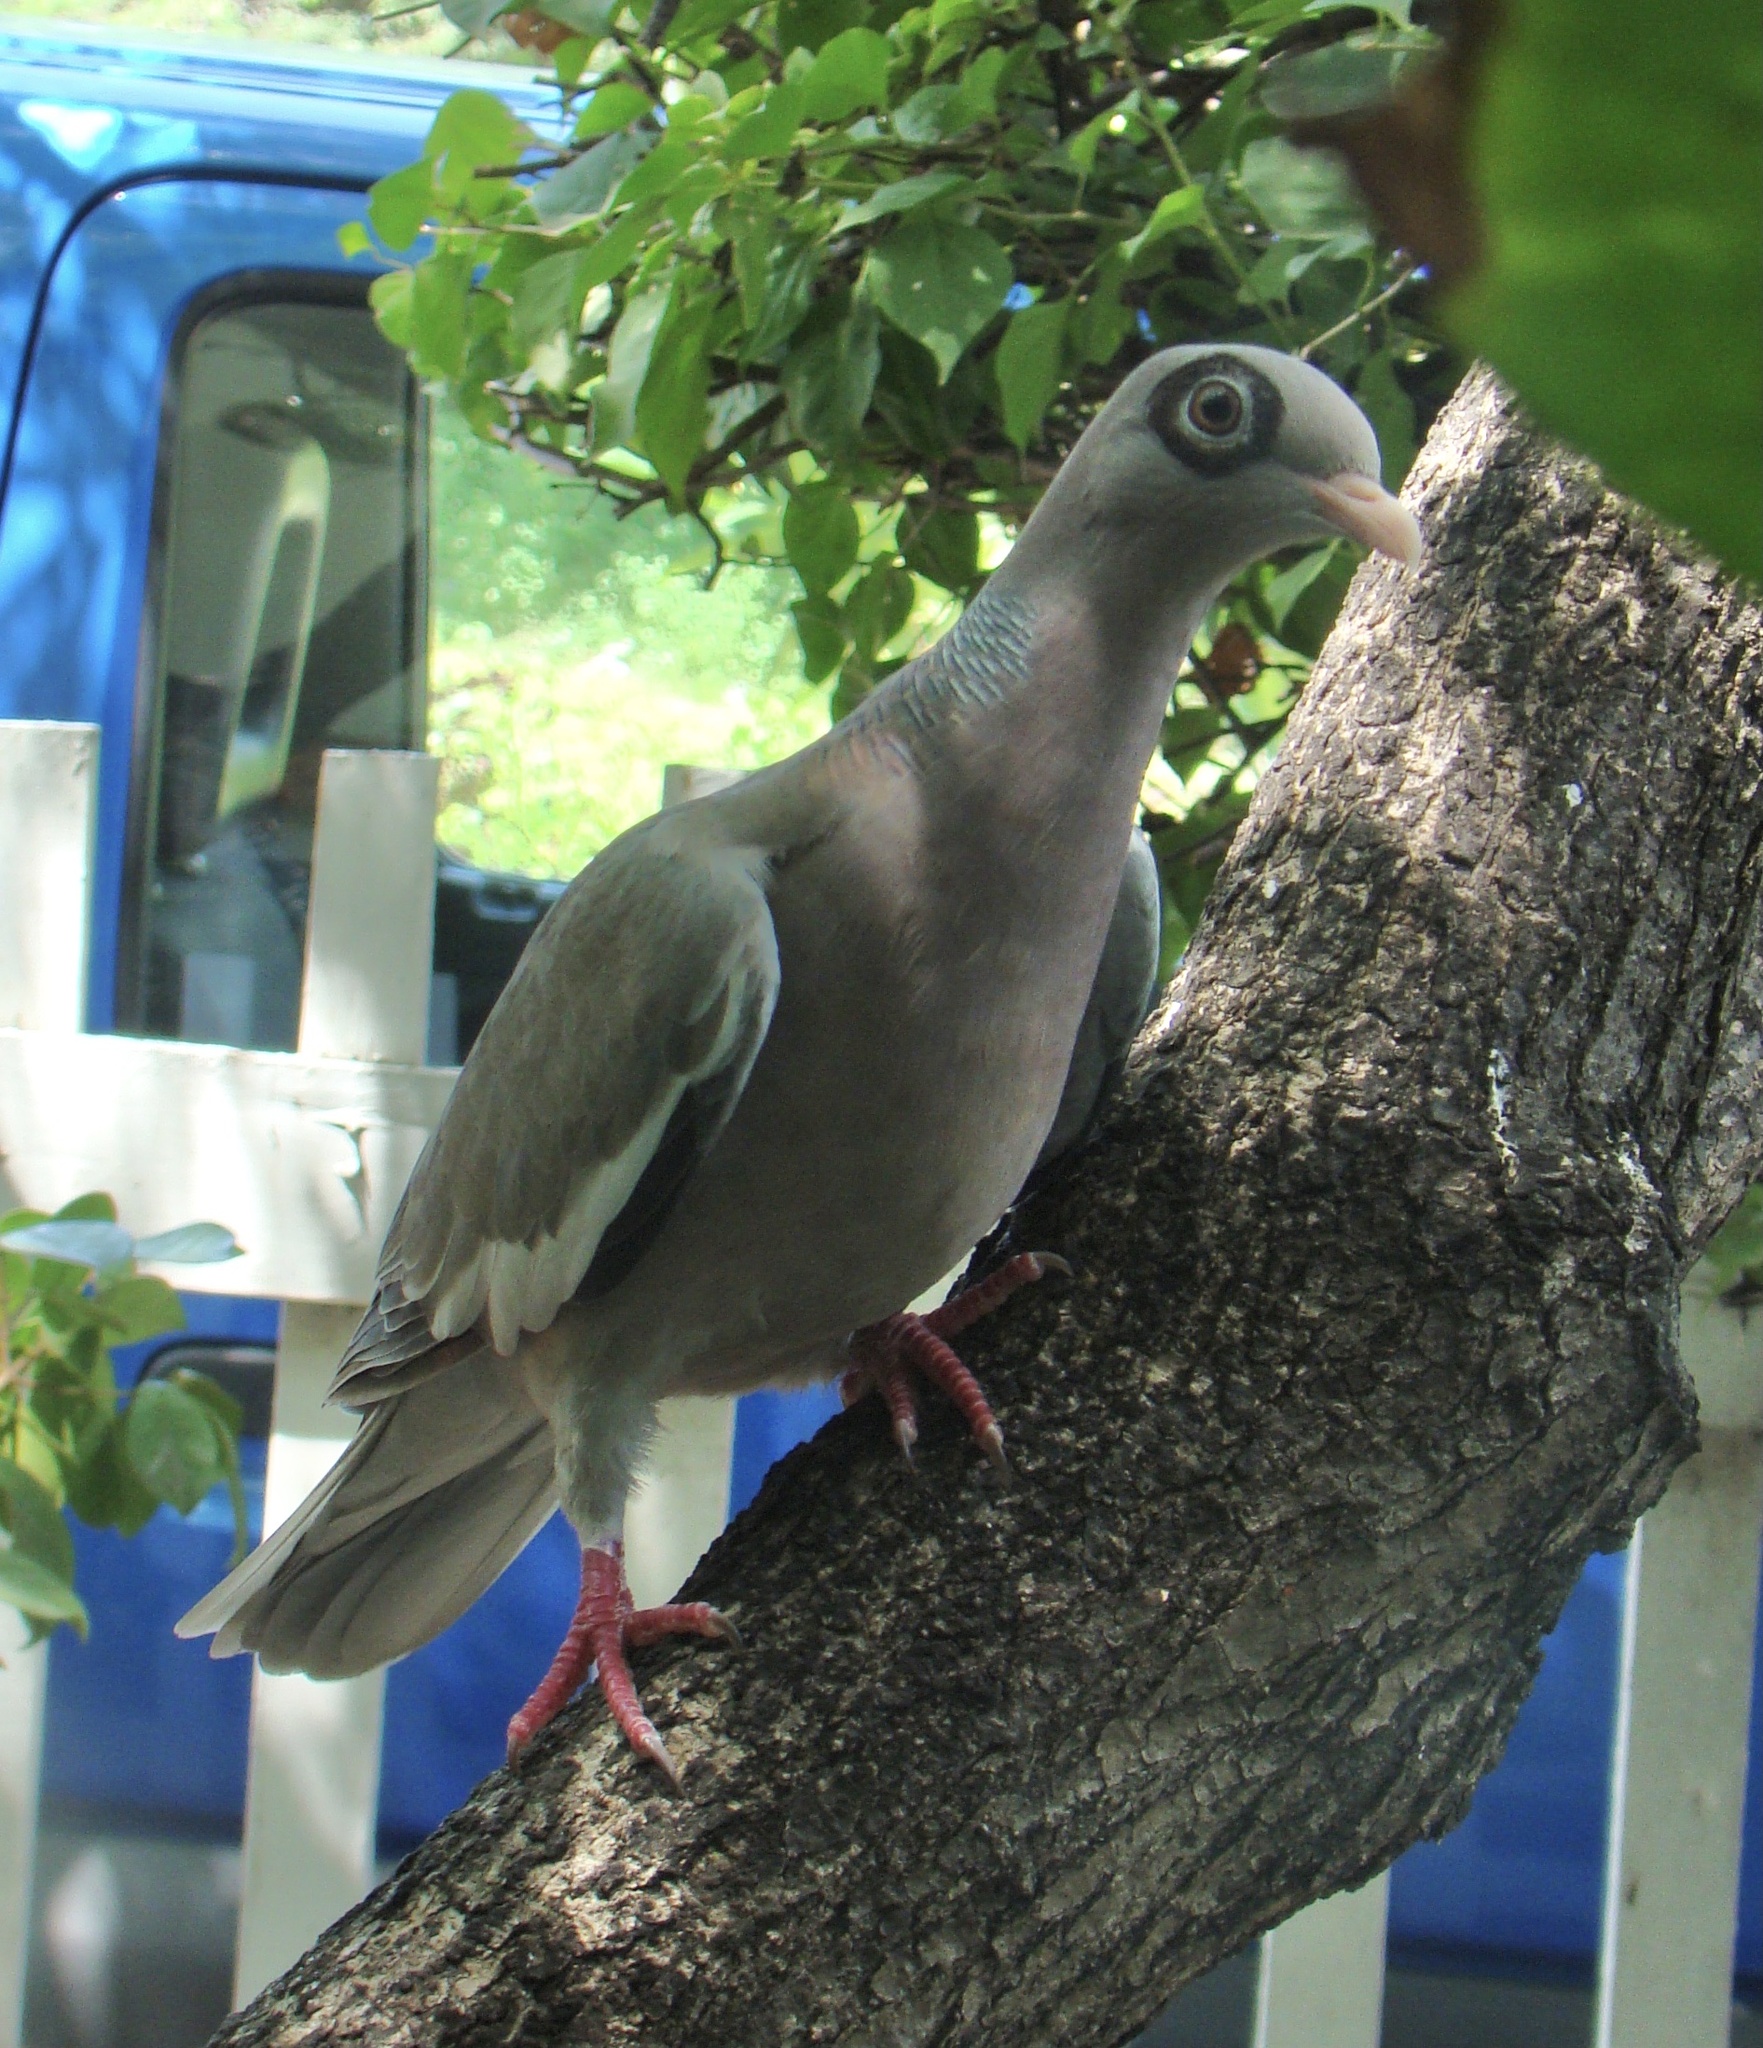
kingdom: Animalia
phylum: Chordata
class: Aves
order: Columbiformes
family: Columbidae
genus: Patagioenas
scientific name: Patagioenas corensis
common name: Bare-eyed pigeon
